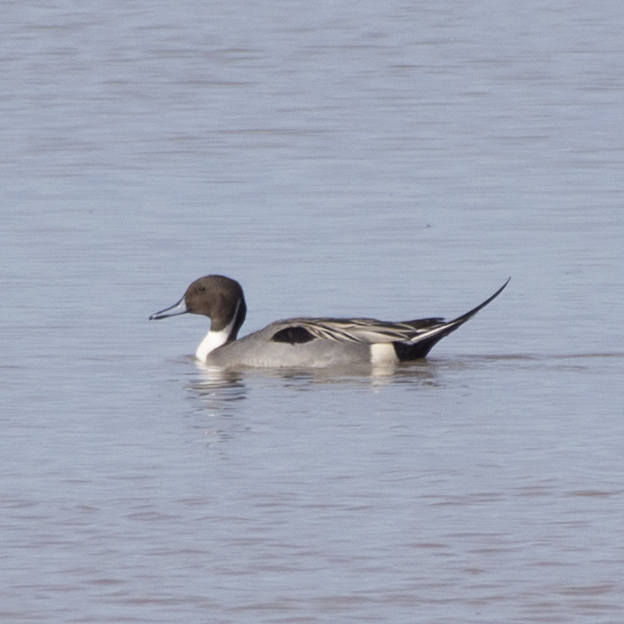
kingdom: Animalia
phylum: Chordata
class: Aves
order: Anseriformes
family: Anatidae
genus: Anas
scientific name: Anas acuta
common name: Northern pintail
